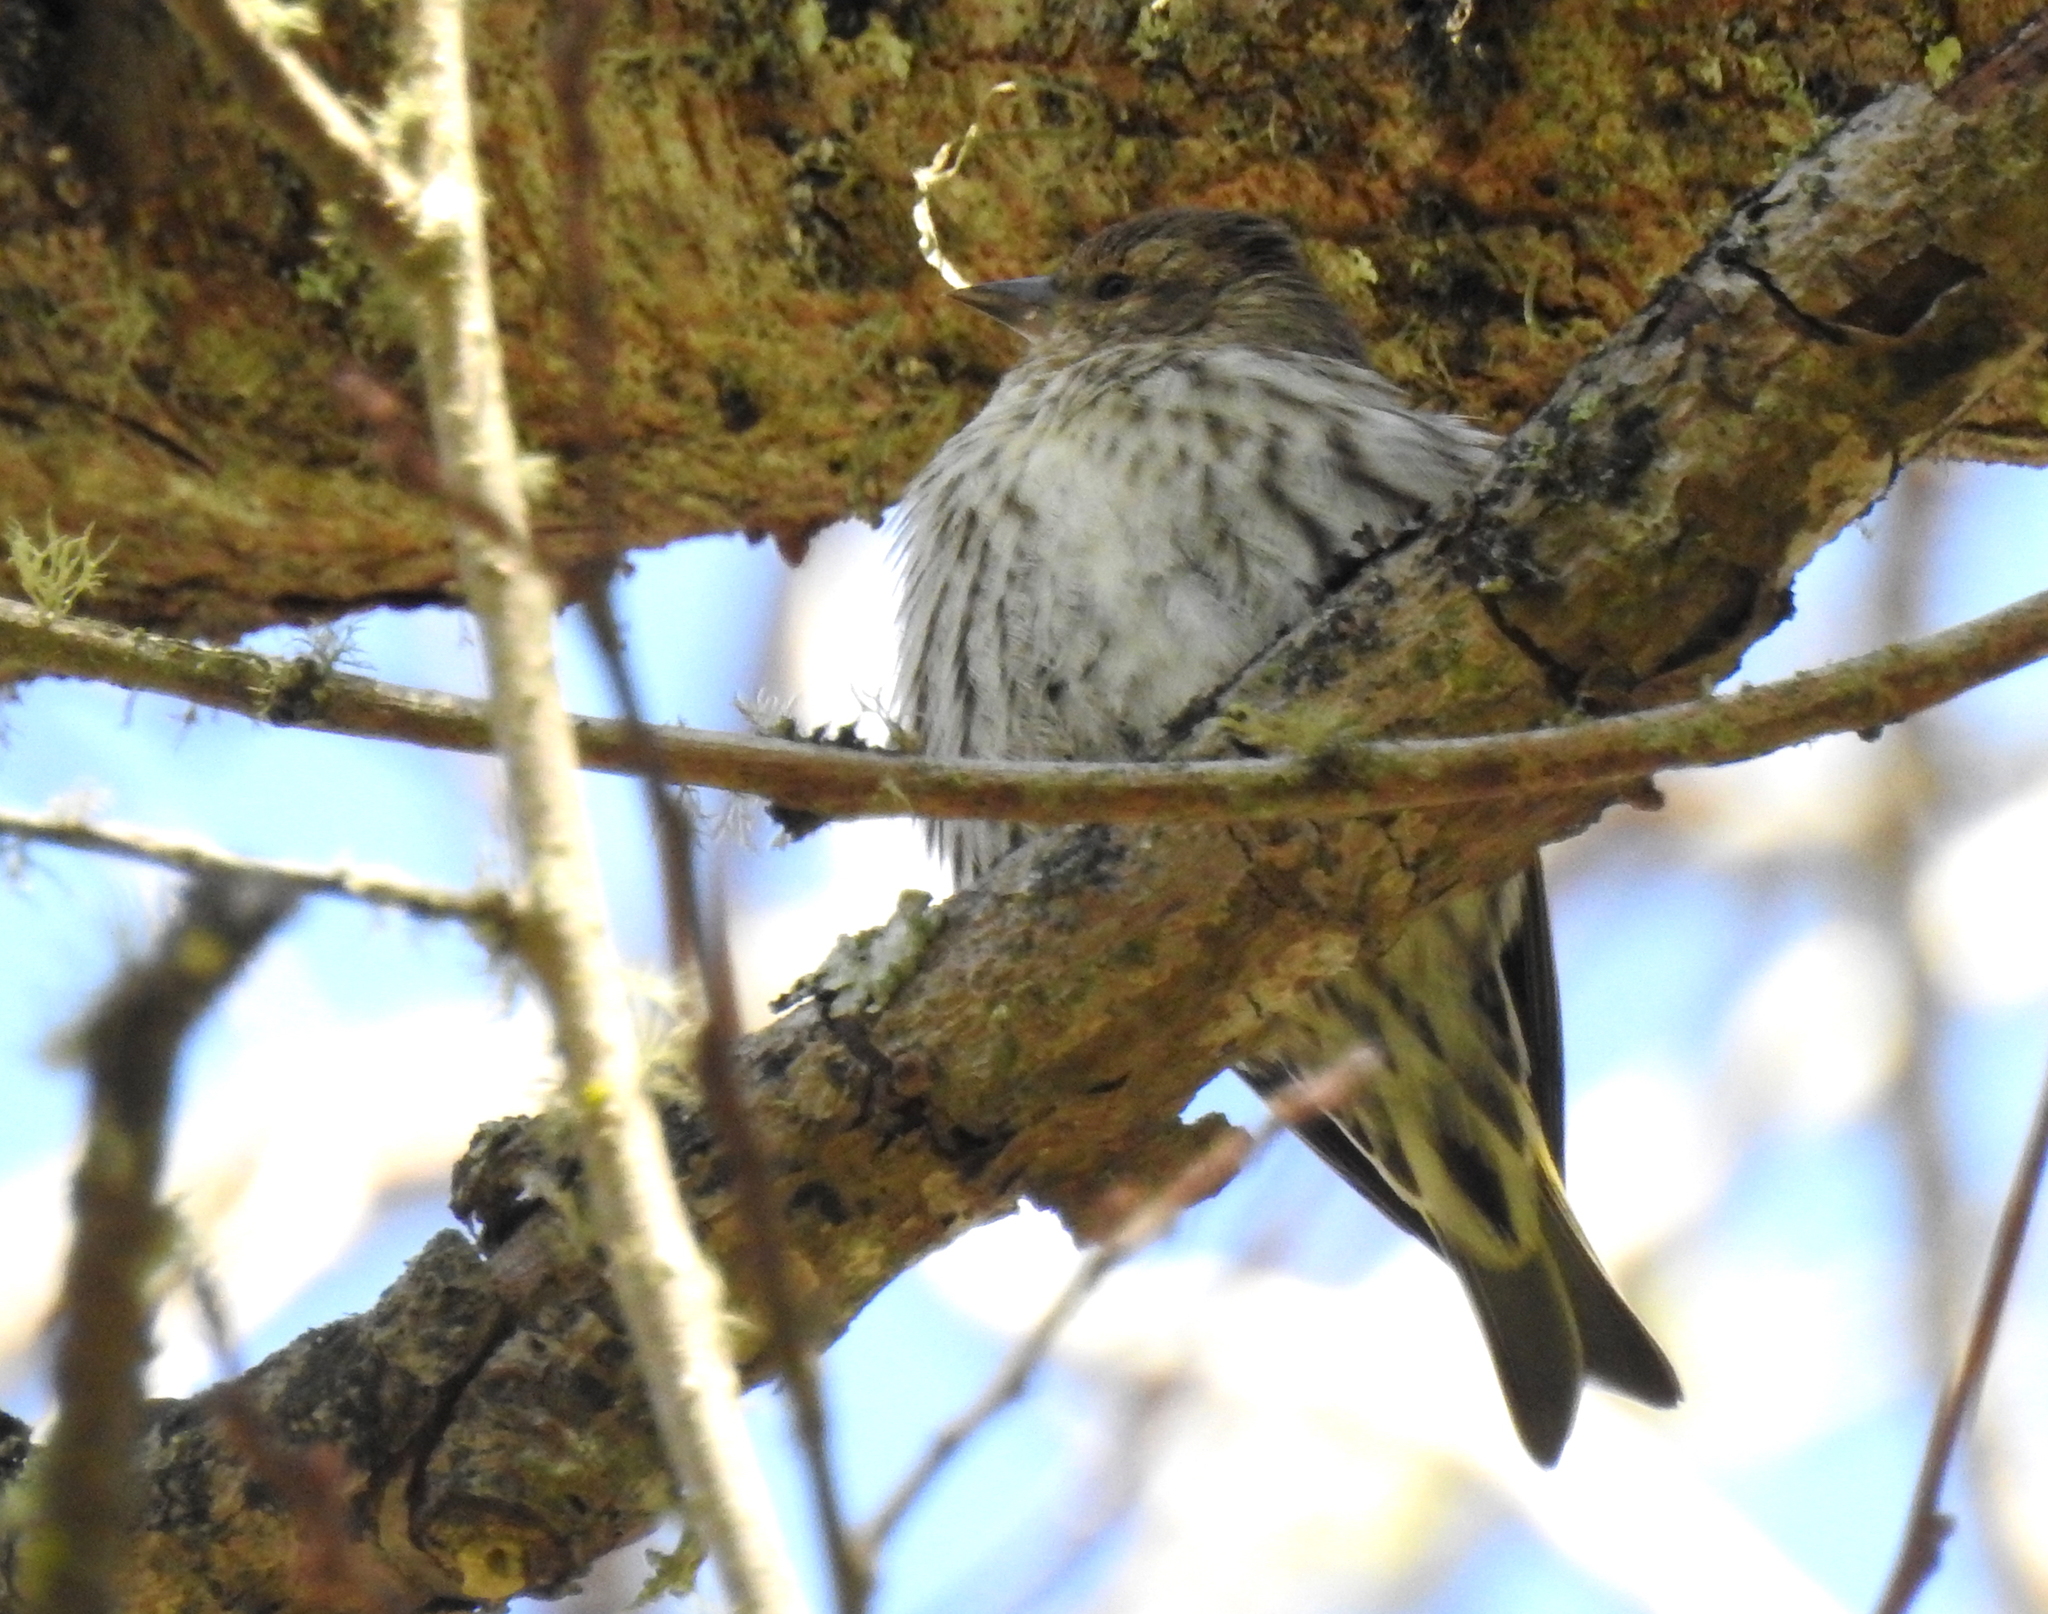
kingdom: Animalia
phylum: Chordata
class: Aves
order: Passeriformes
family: Fringillidae
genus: Spinus
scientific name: Spinus pinus
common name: Pine siskin
